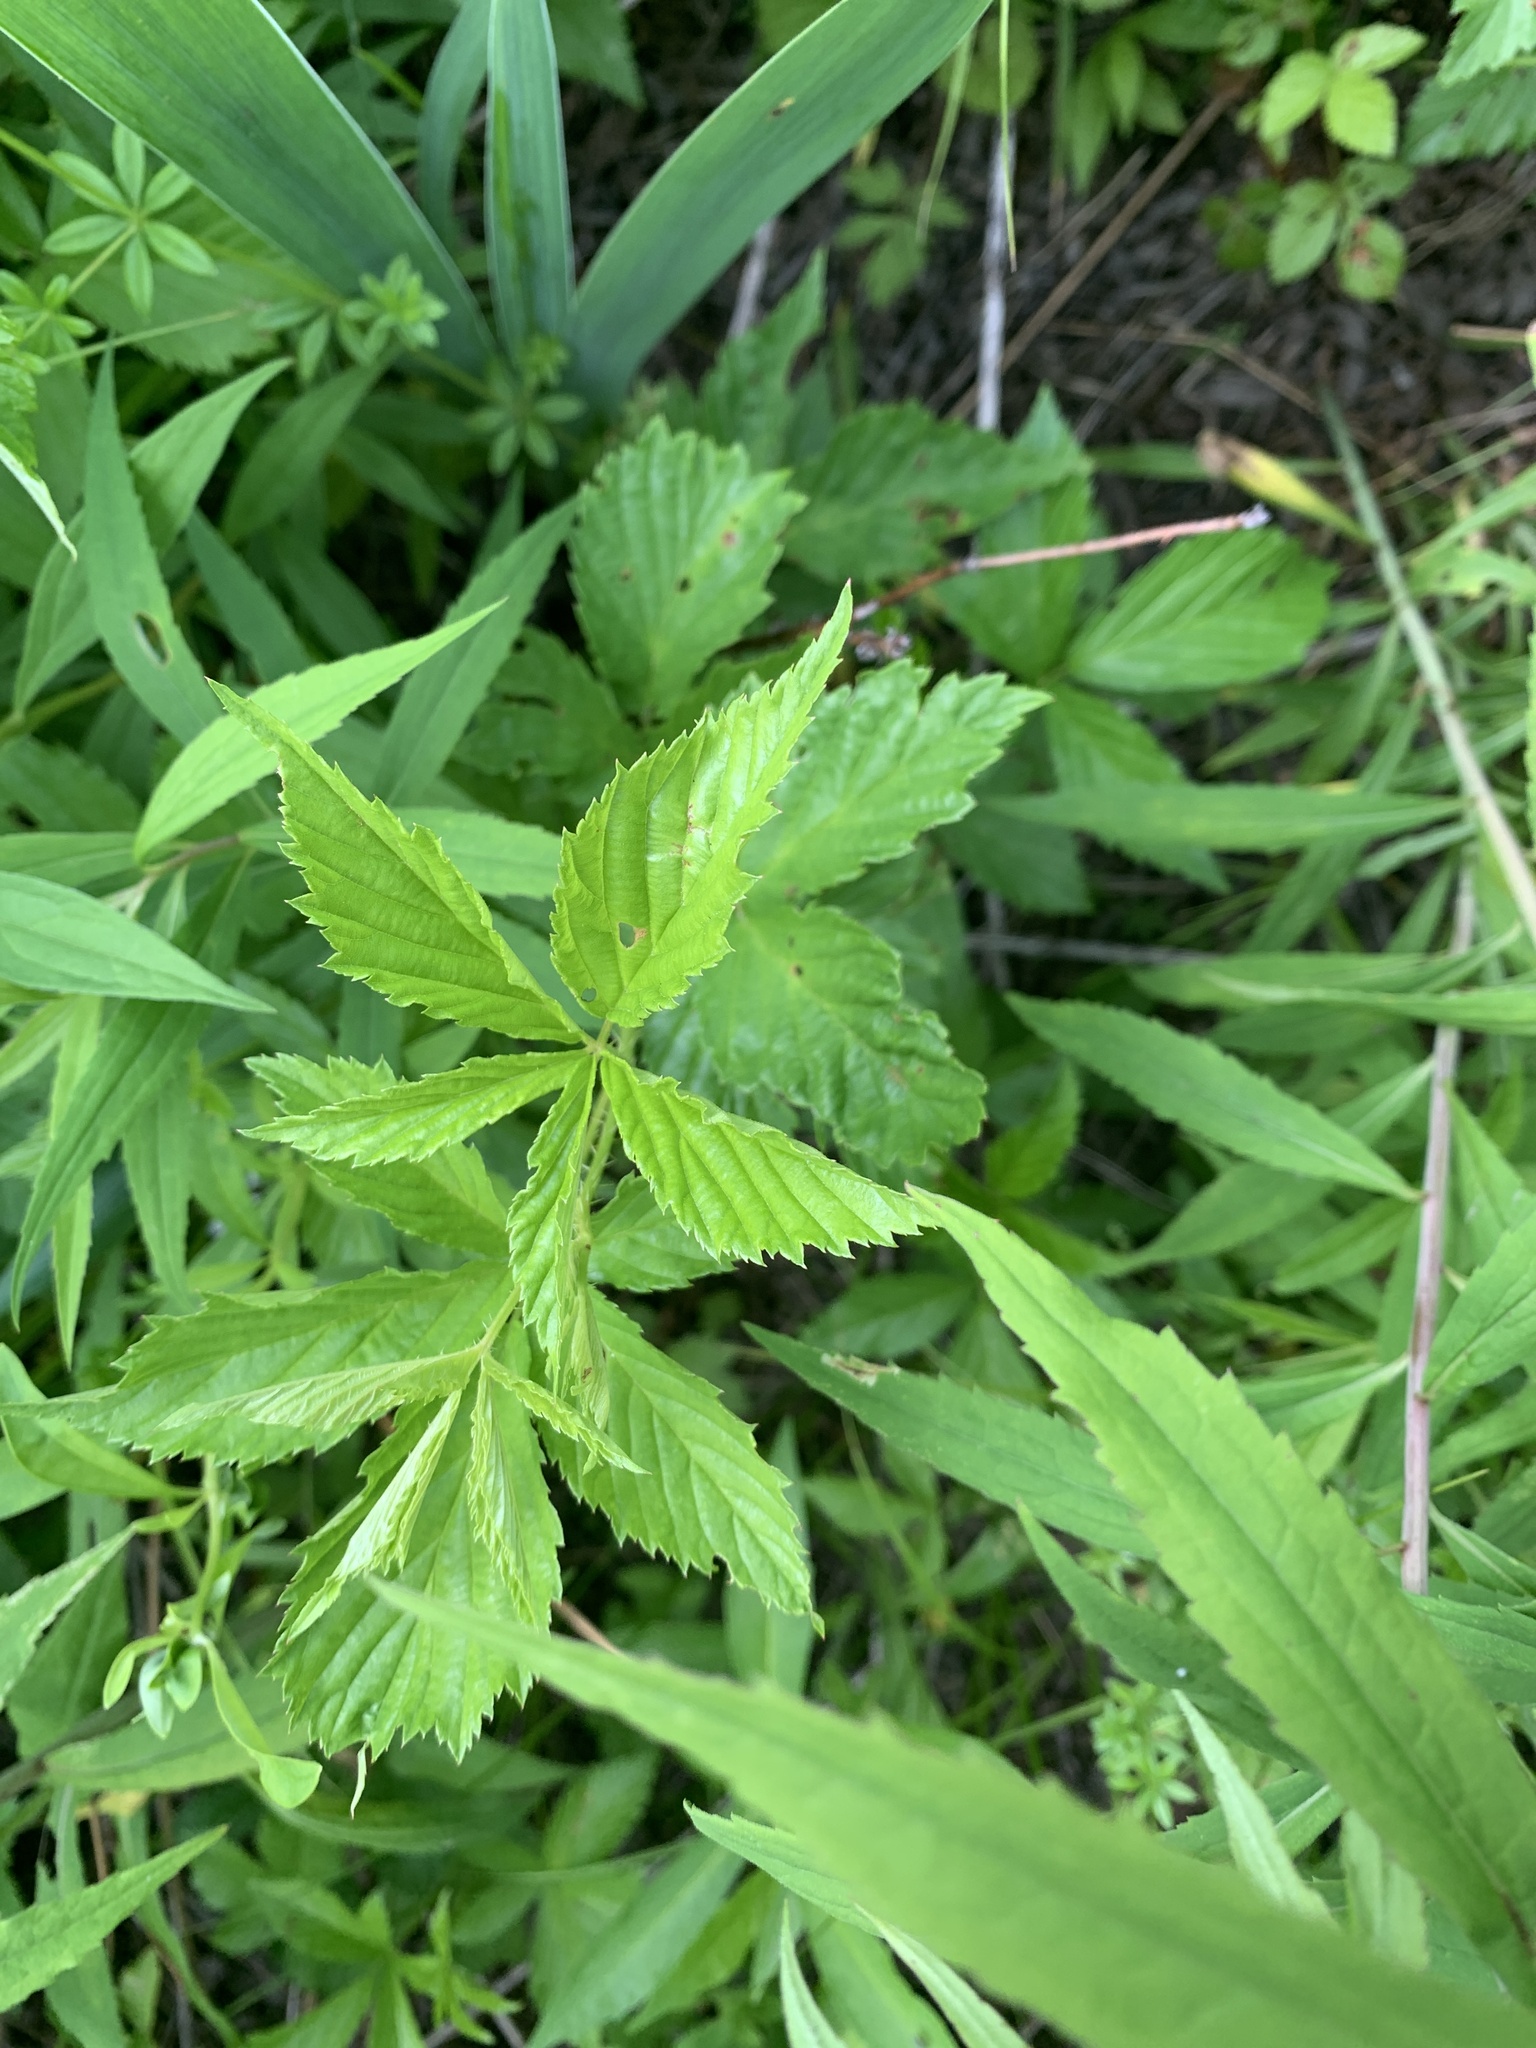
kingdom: Plantae
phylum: Tracheophyta
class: Magnoliopsida
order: Rosales
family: Rosaceae
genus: Rubus
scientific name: Rubus vermontanus
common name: Green mountain blackberry
